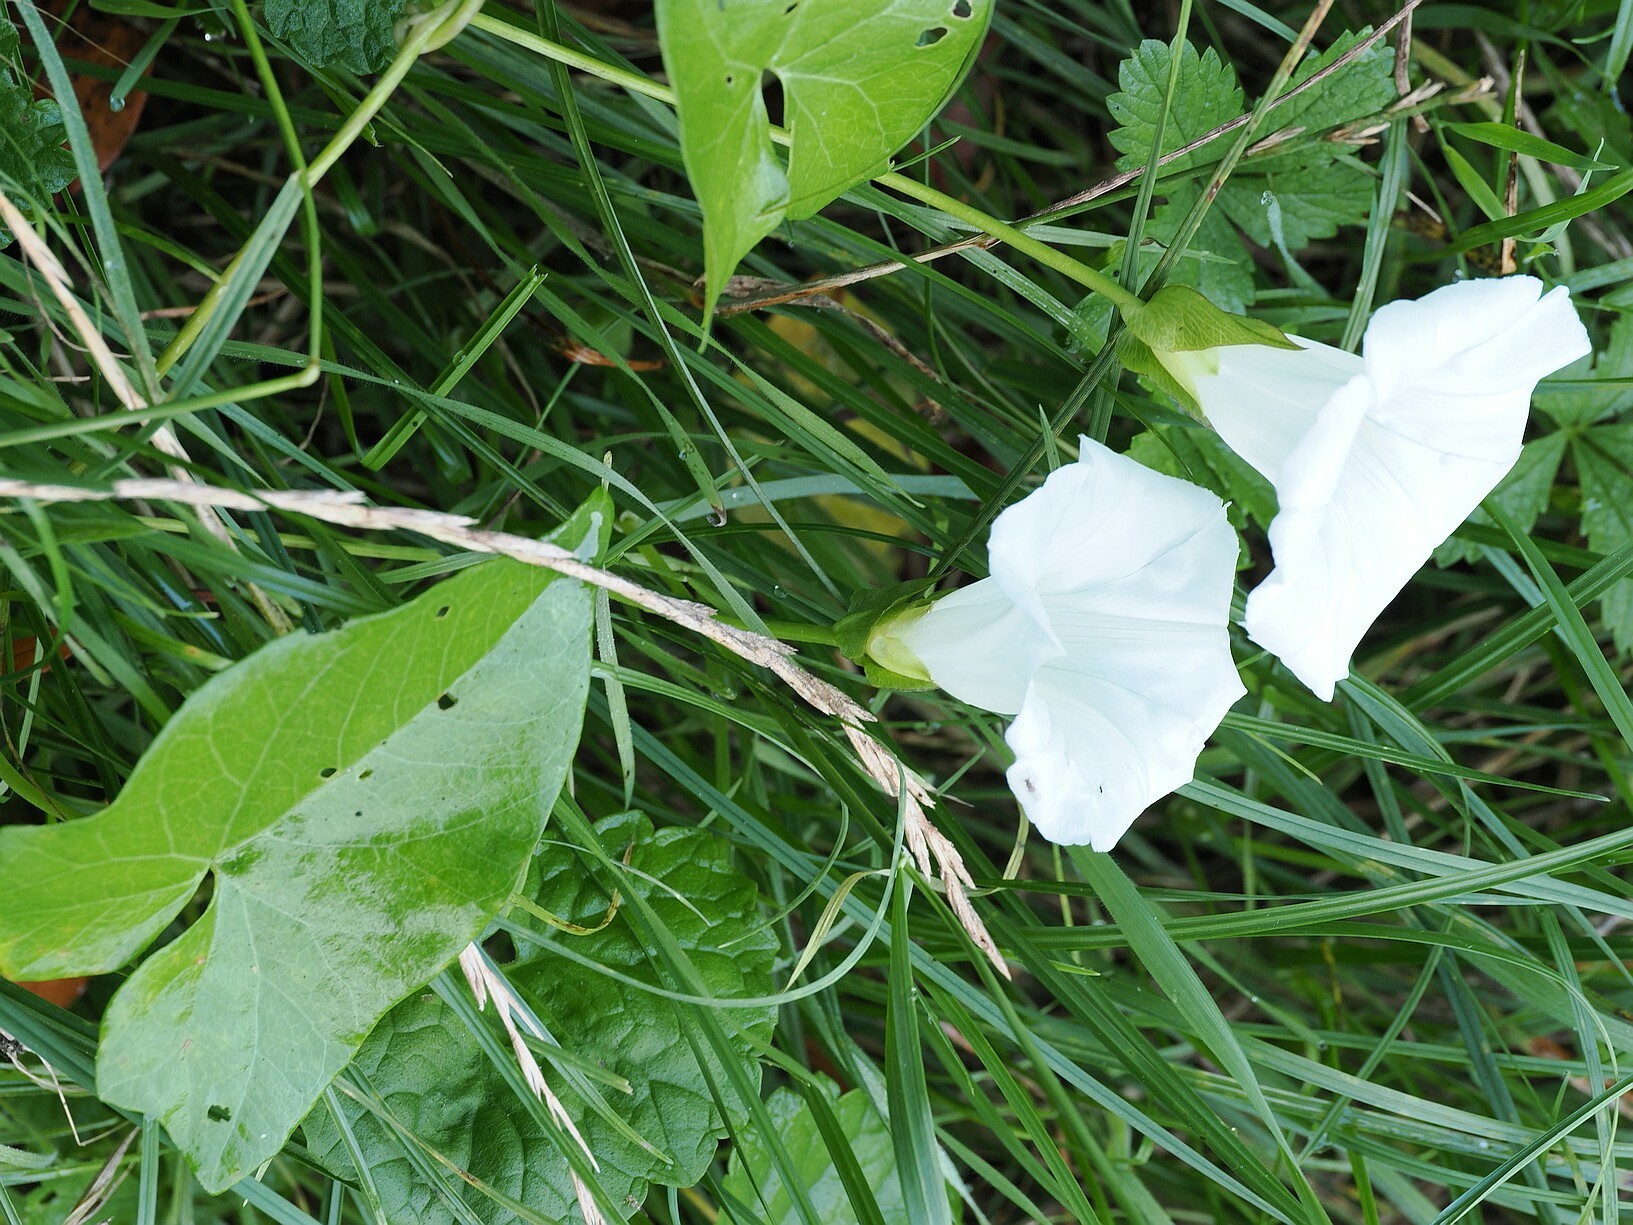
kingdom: Plantae
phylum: Tracheophyta
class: Magnoliopsida
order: Solanales
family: Convolvulaceae
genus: Calystegia
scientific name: Calystegia sepium
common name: Hedge bindweed
